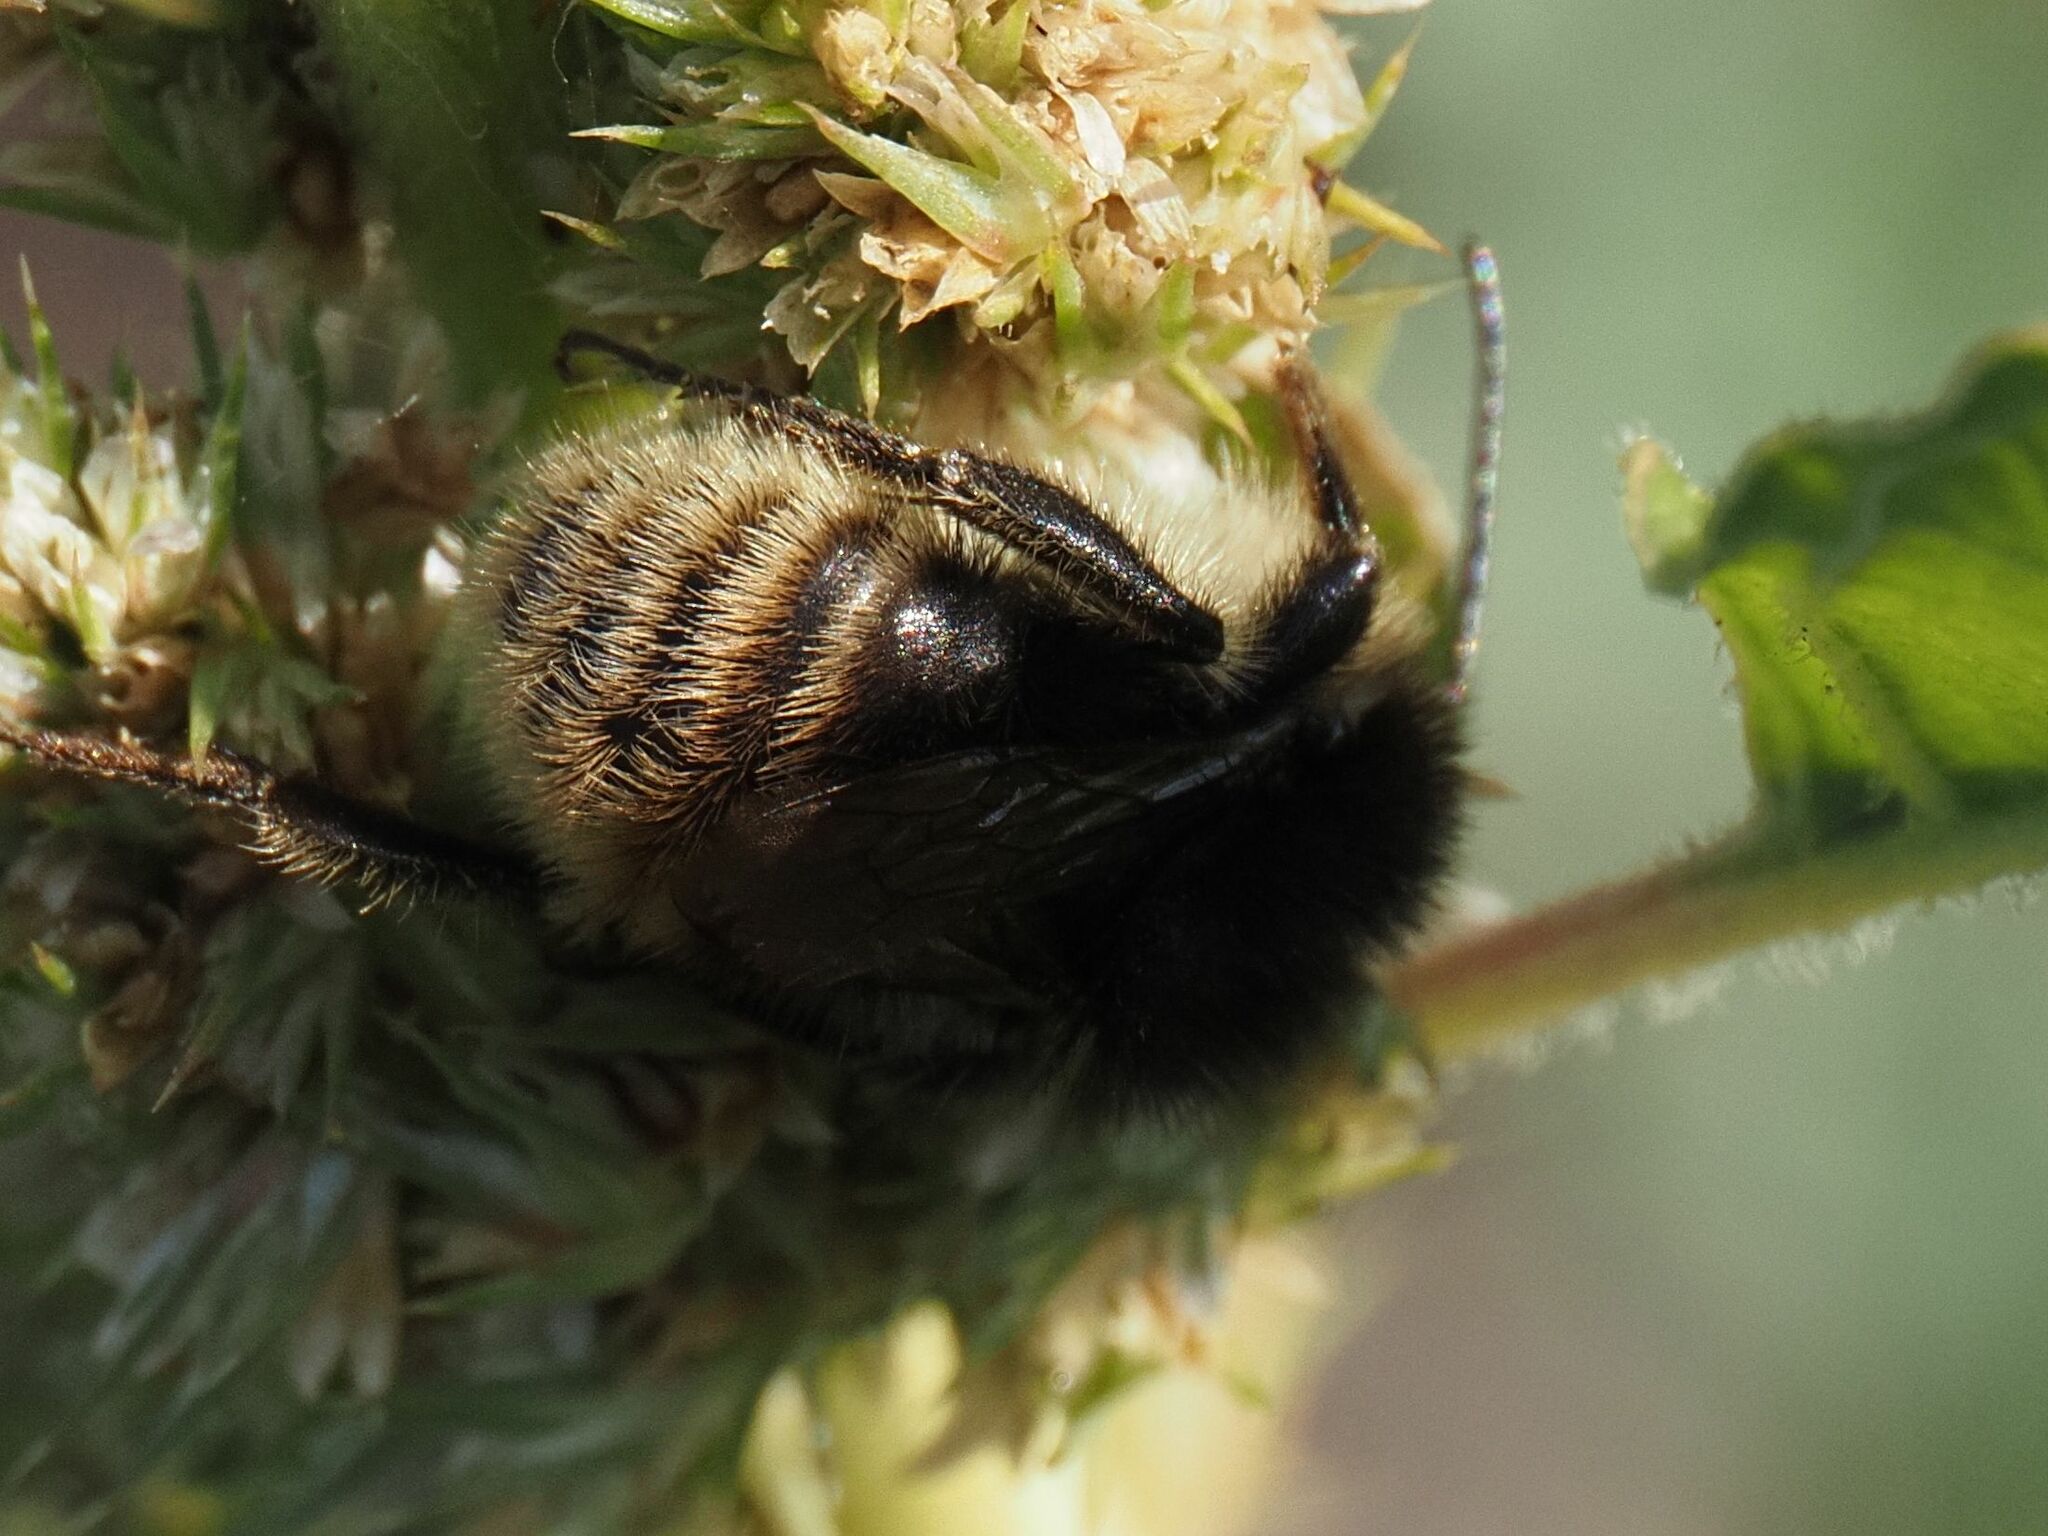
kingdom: Animalia
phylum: Arthropoda
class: Insecta
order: Hymenoptera
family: Apidae
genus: Bombus
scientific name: Bombus humilis
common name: Brown-banded carder-bee
